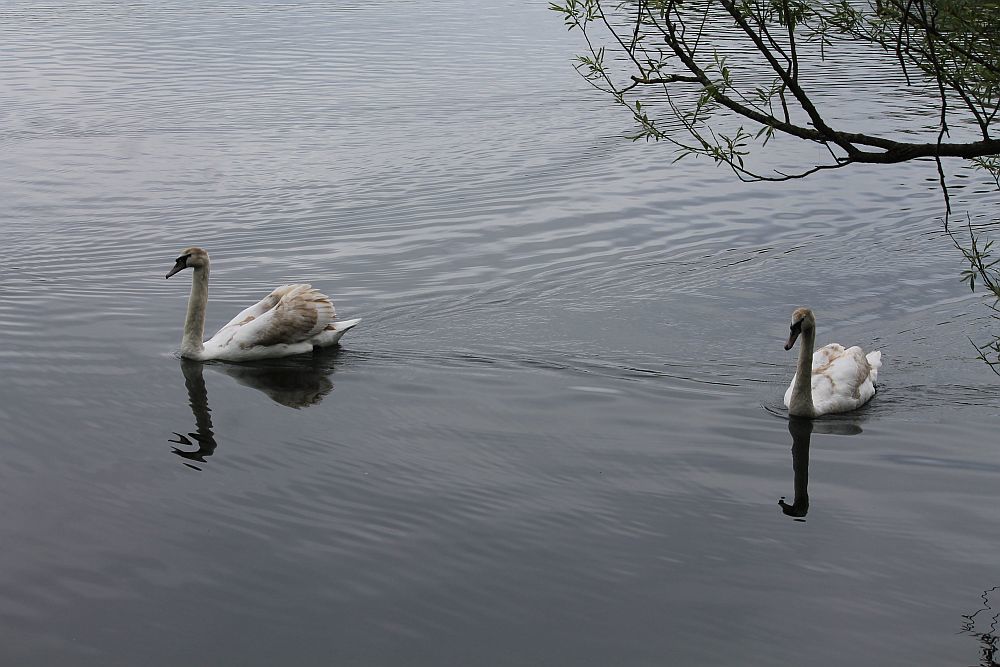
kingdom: Animalia
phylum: Chordata
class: Aves
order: Anseriformes
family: Anatidae
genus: Cygnus
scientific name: Cygnus olor
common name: Mute swan
